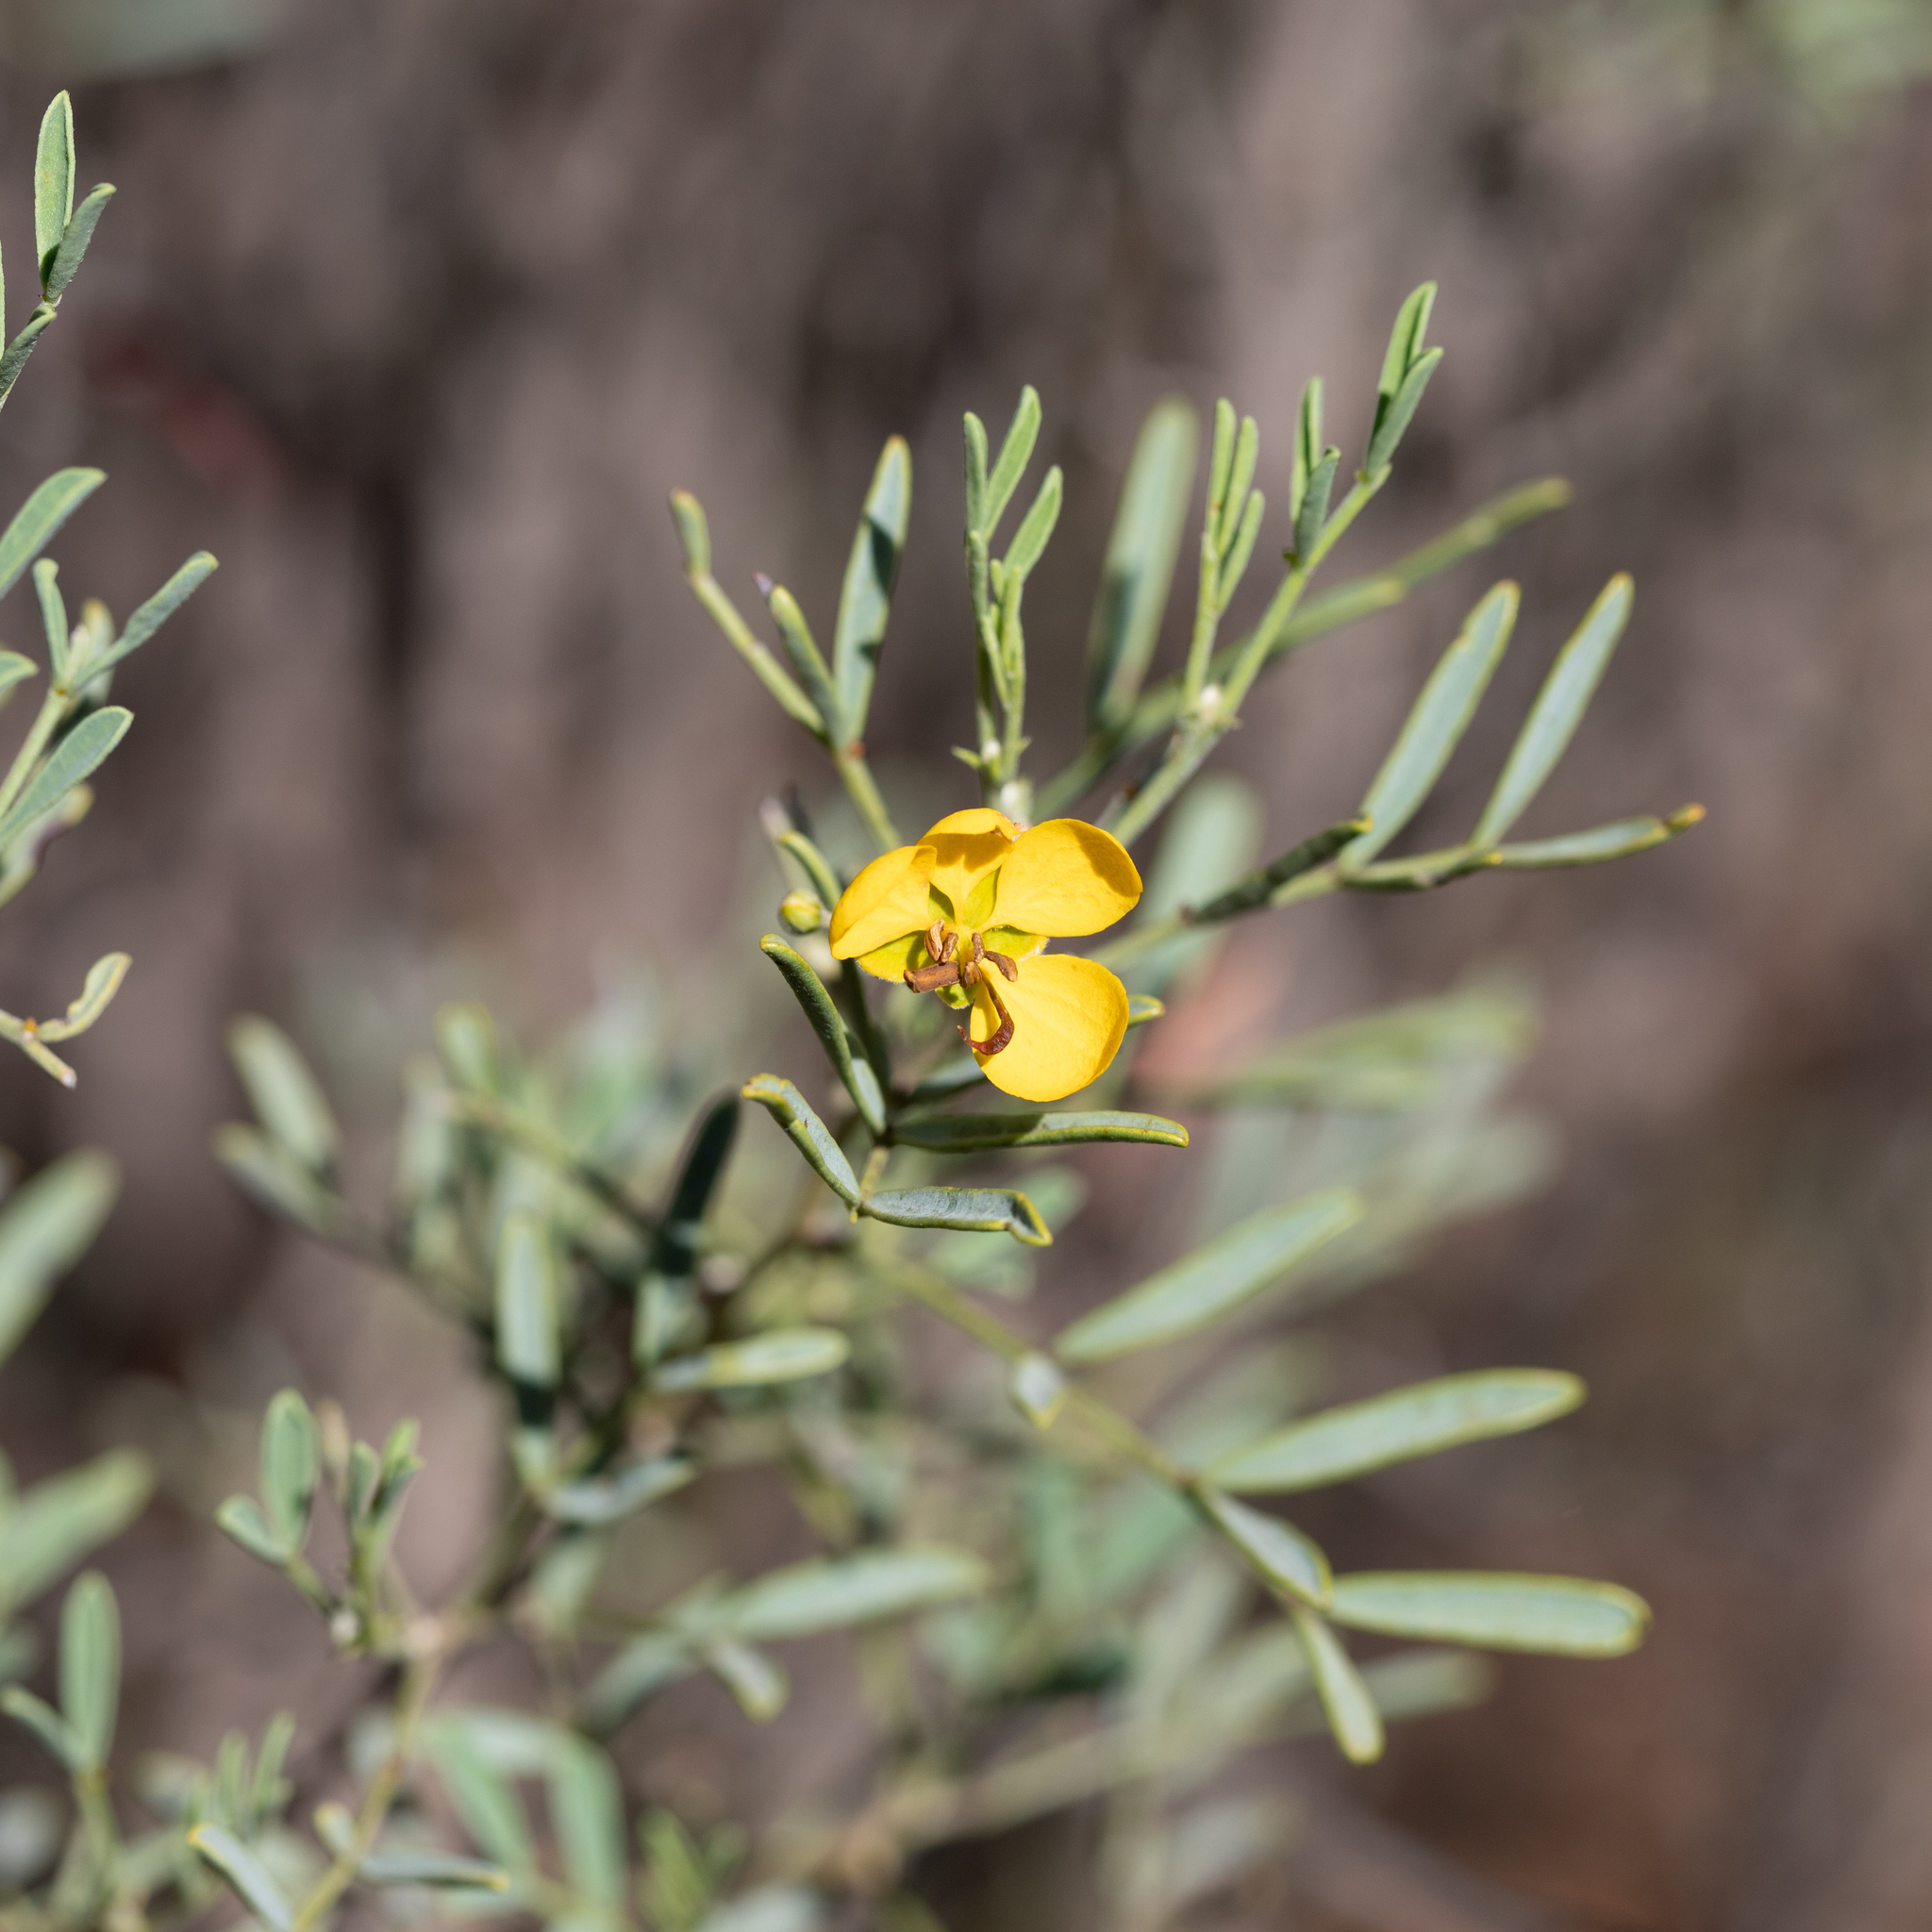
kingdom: Plantae
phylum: Tracheophyta
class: Magnoliopsida
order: Fabales
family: Fabaceae
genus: Senna
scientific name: Senna artemisioides
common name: Burnt-leaved acacia
